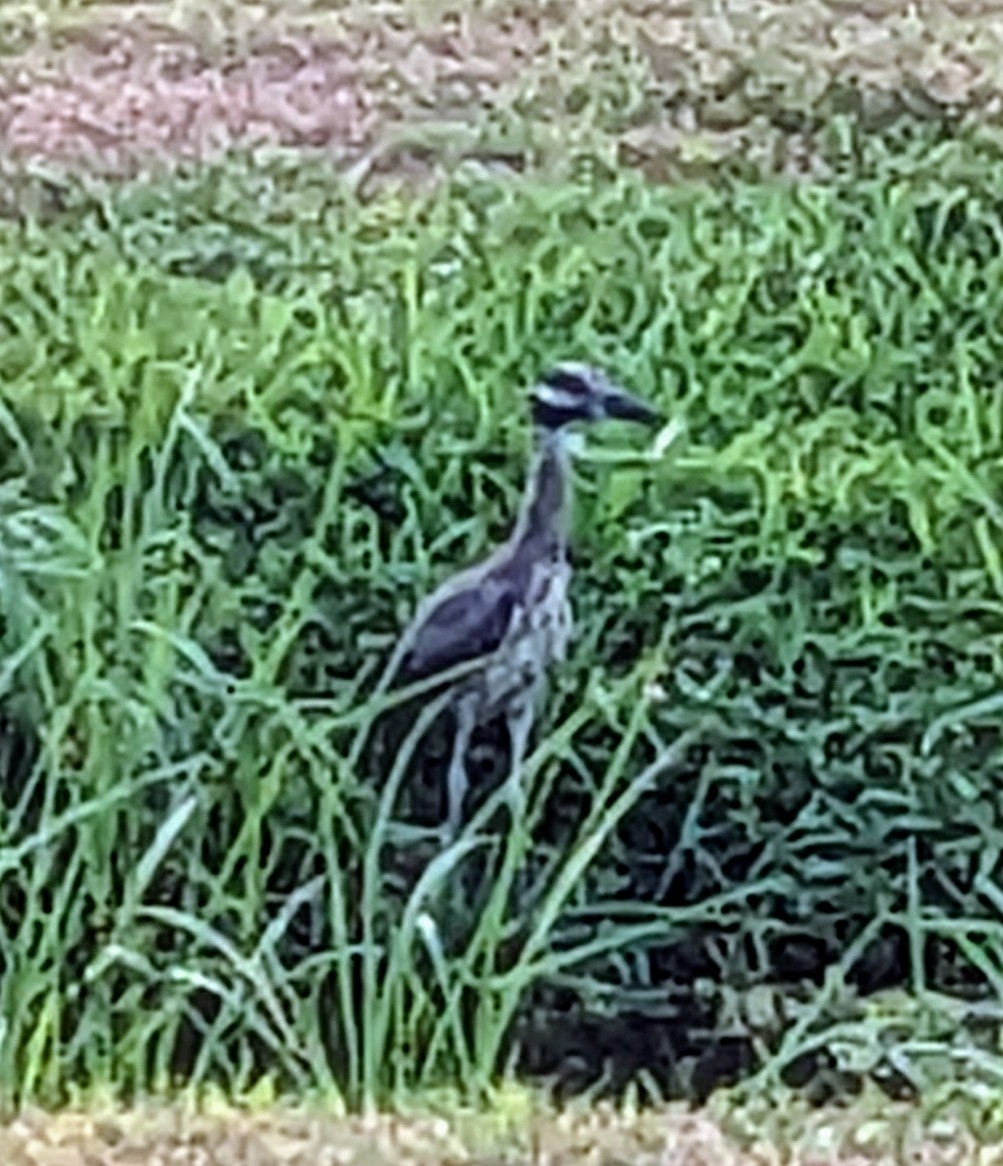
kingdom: Animalia
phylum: Chordata
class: Aves
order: Pelecaniformes
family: Ardeidae
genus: Nyctanassa
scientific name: Nyctanassa violacea
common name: Yellow-crowned night heron
